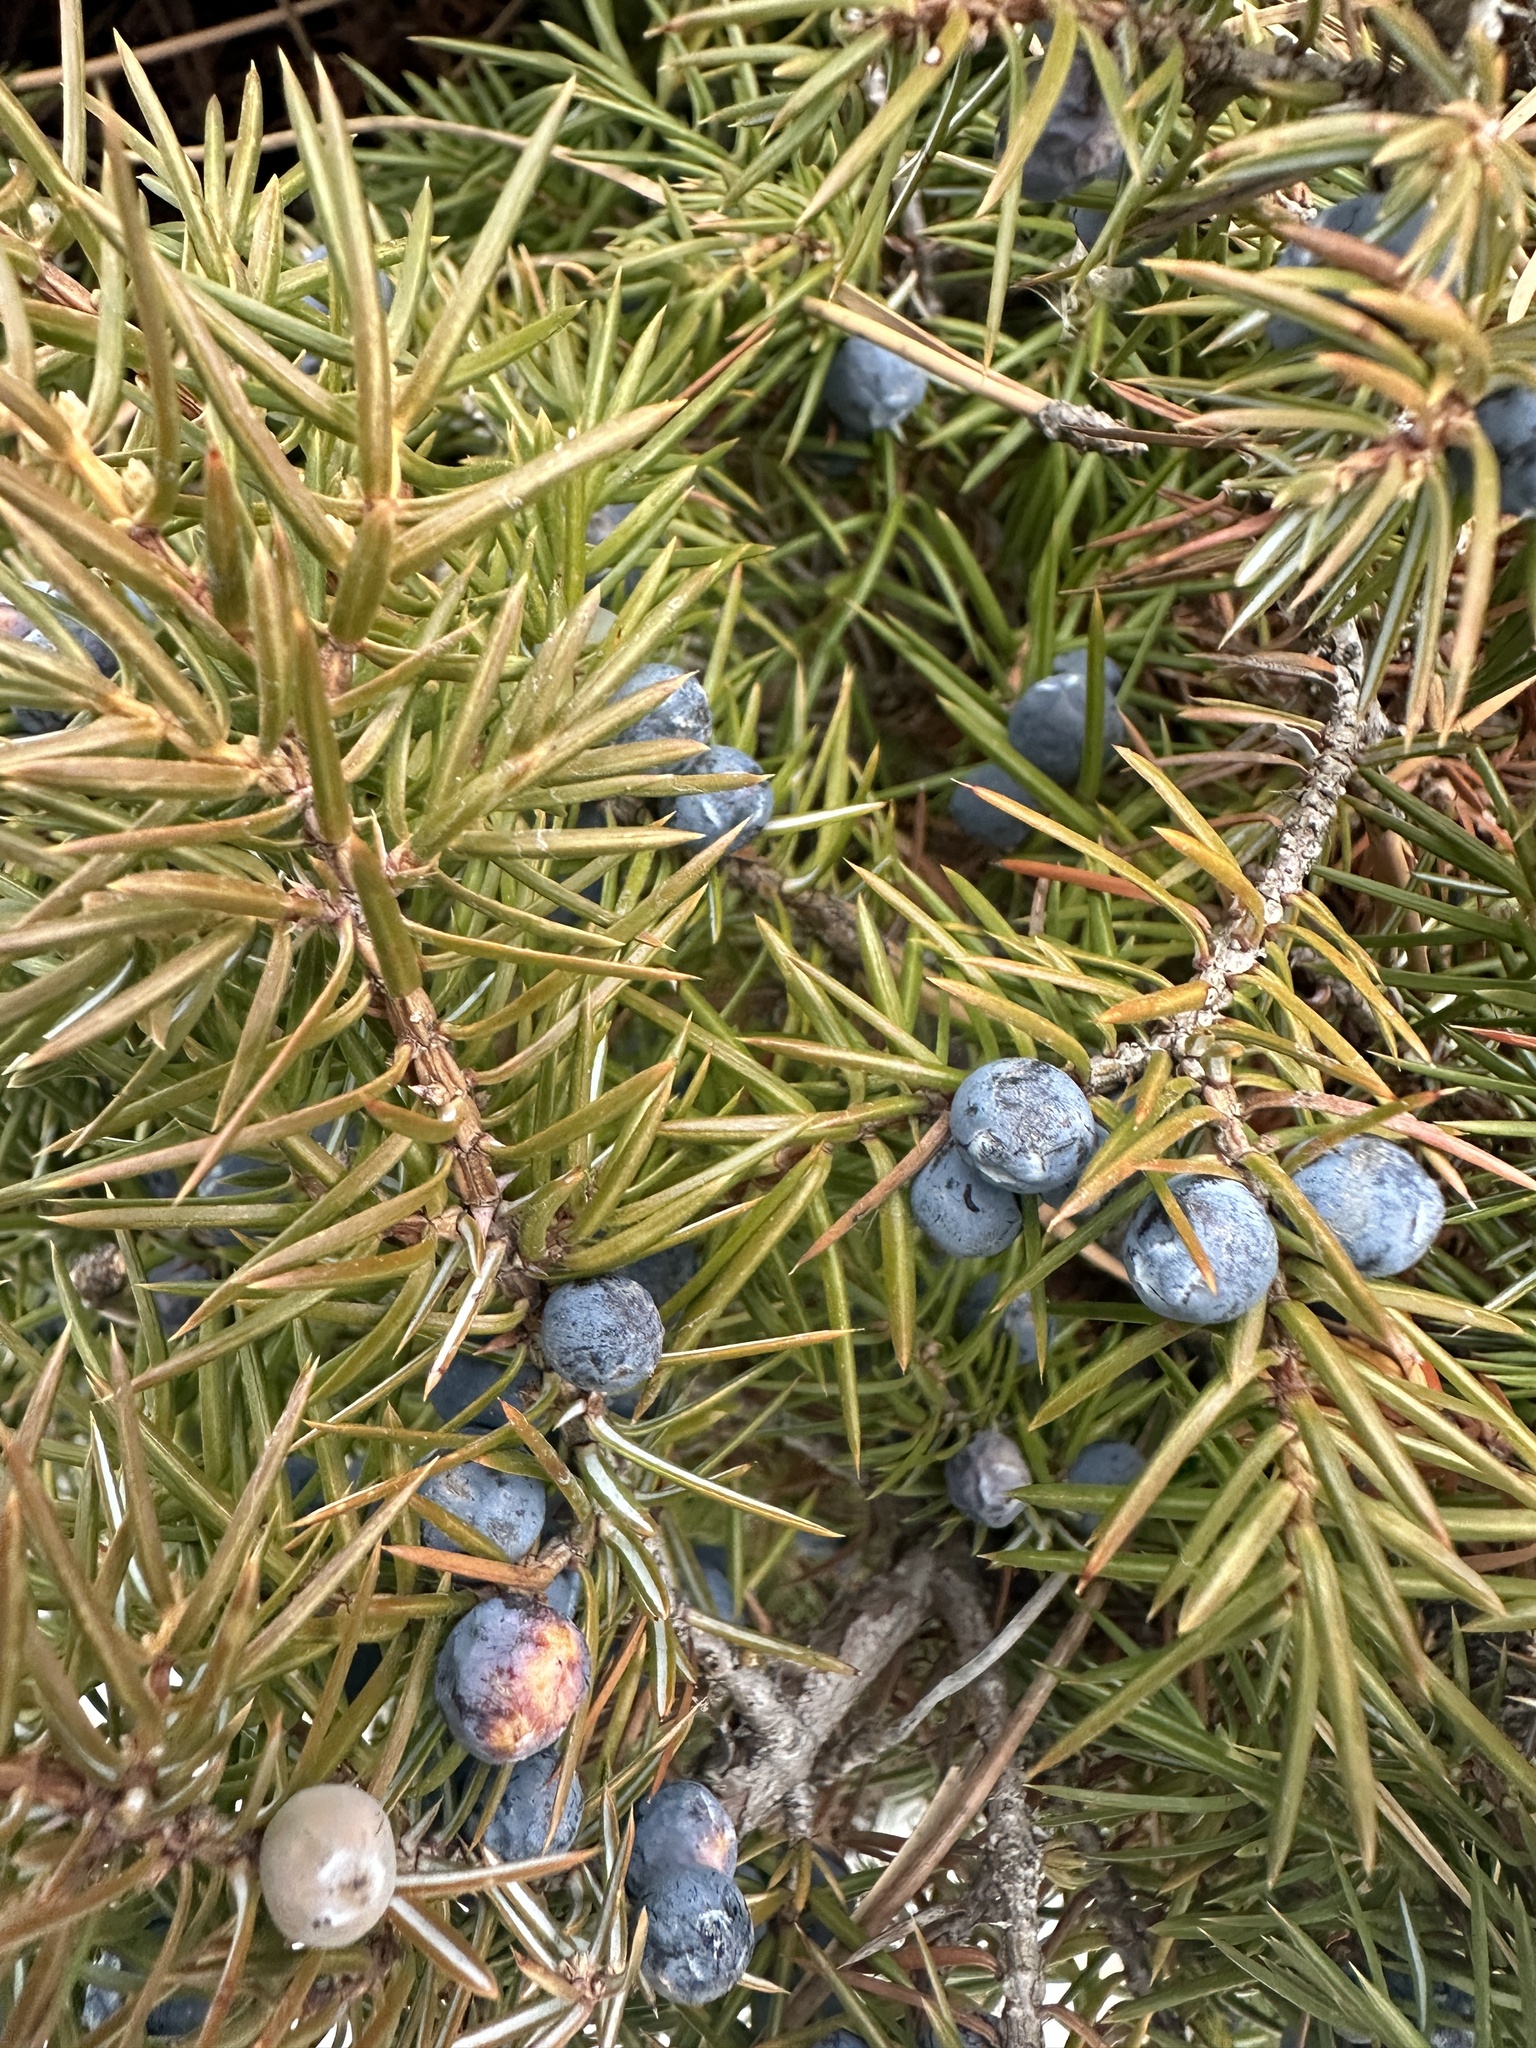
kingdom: Plantae
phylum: Tracheophyta
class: Pinopsida
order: Pinales
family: Cupressaceae
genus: Juniperus
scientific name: Juniperus communis
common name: Common juniper
